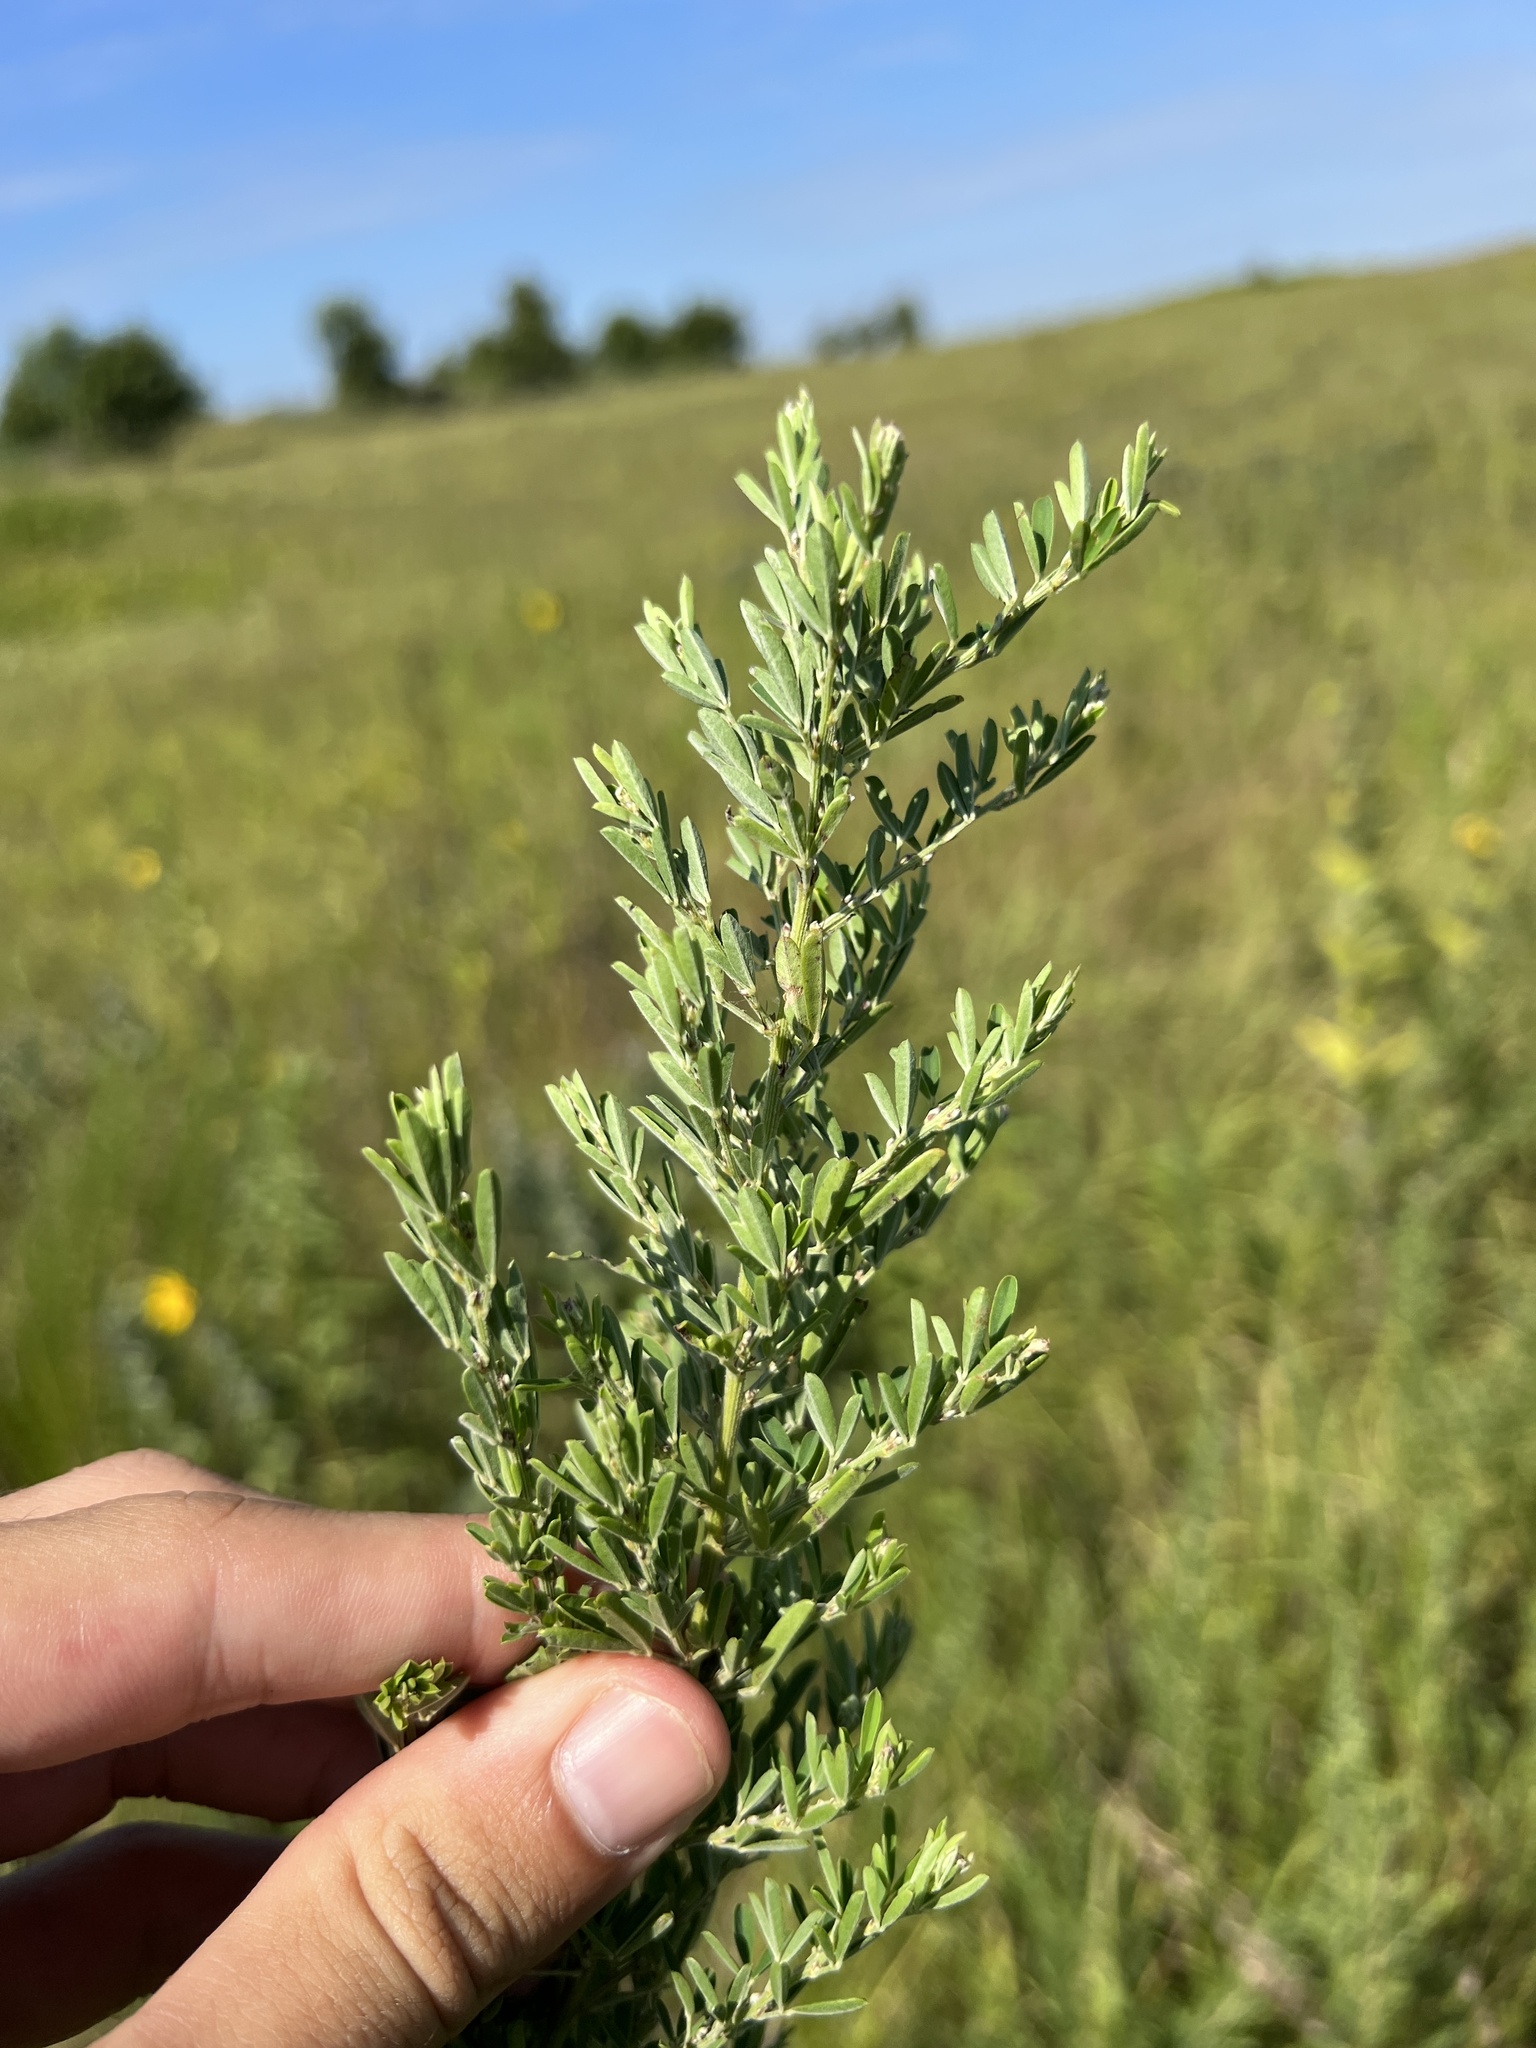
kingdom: Plantae
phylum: Tracheophyta
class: Magnoliopsida
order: Fabales
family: Fabaceae
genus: Lespedeza
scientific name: Lespedeza cuneata
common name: Chinese bush-clover
